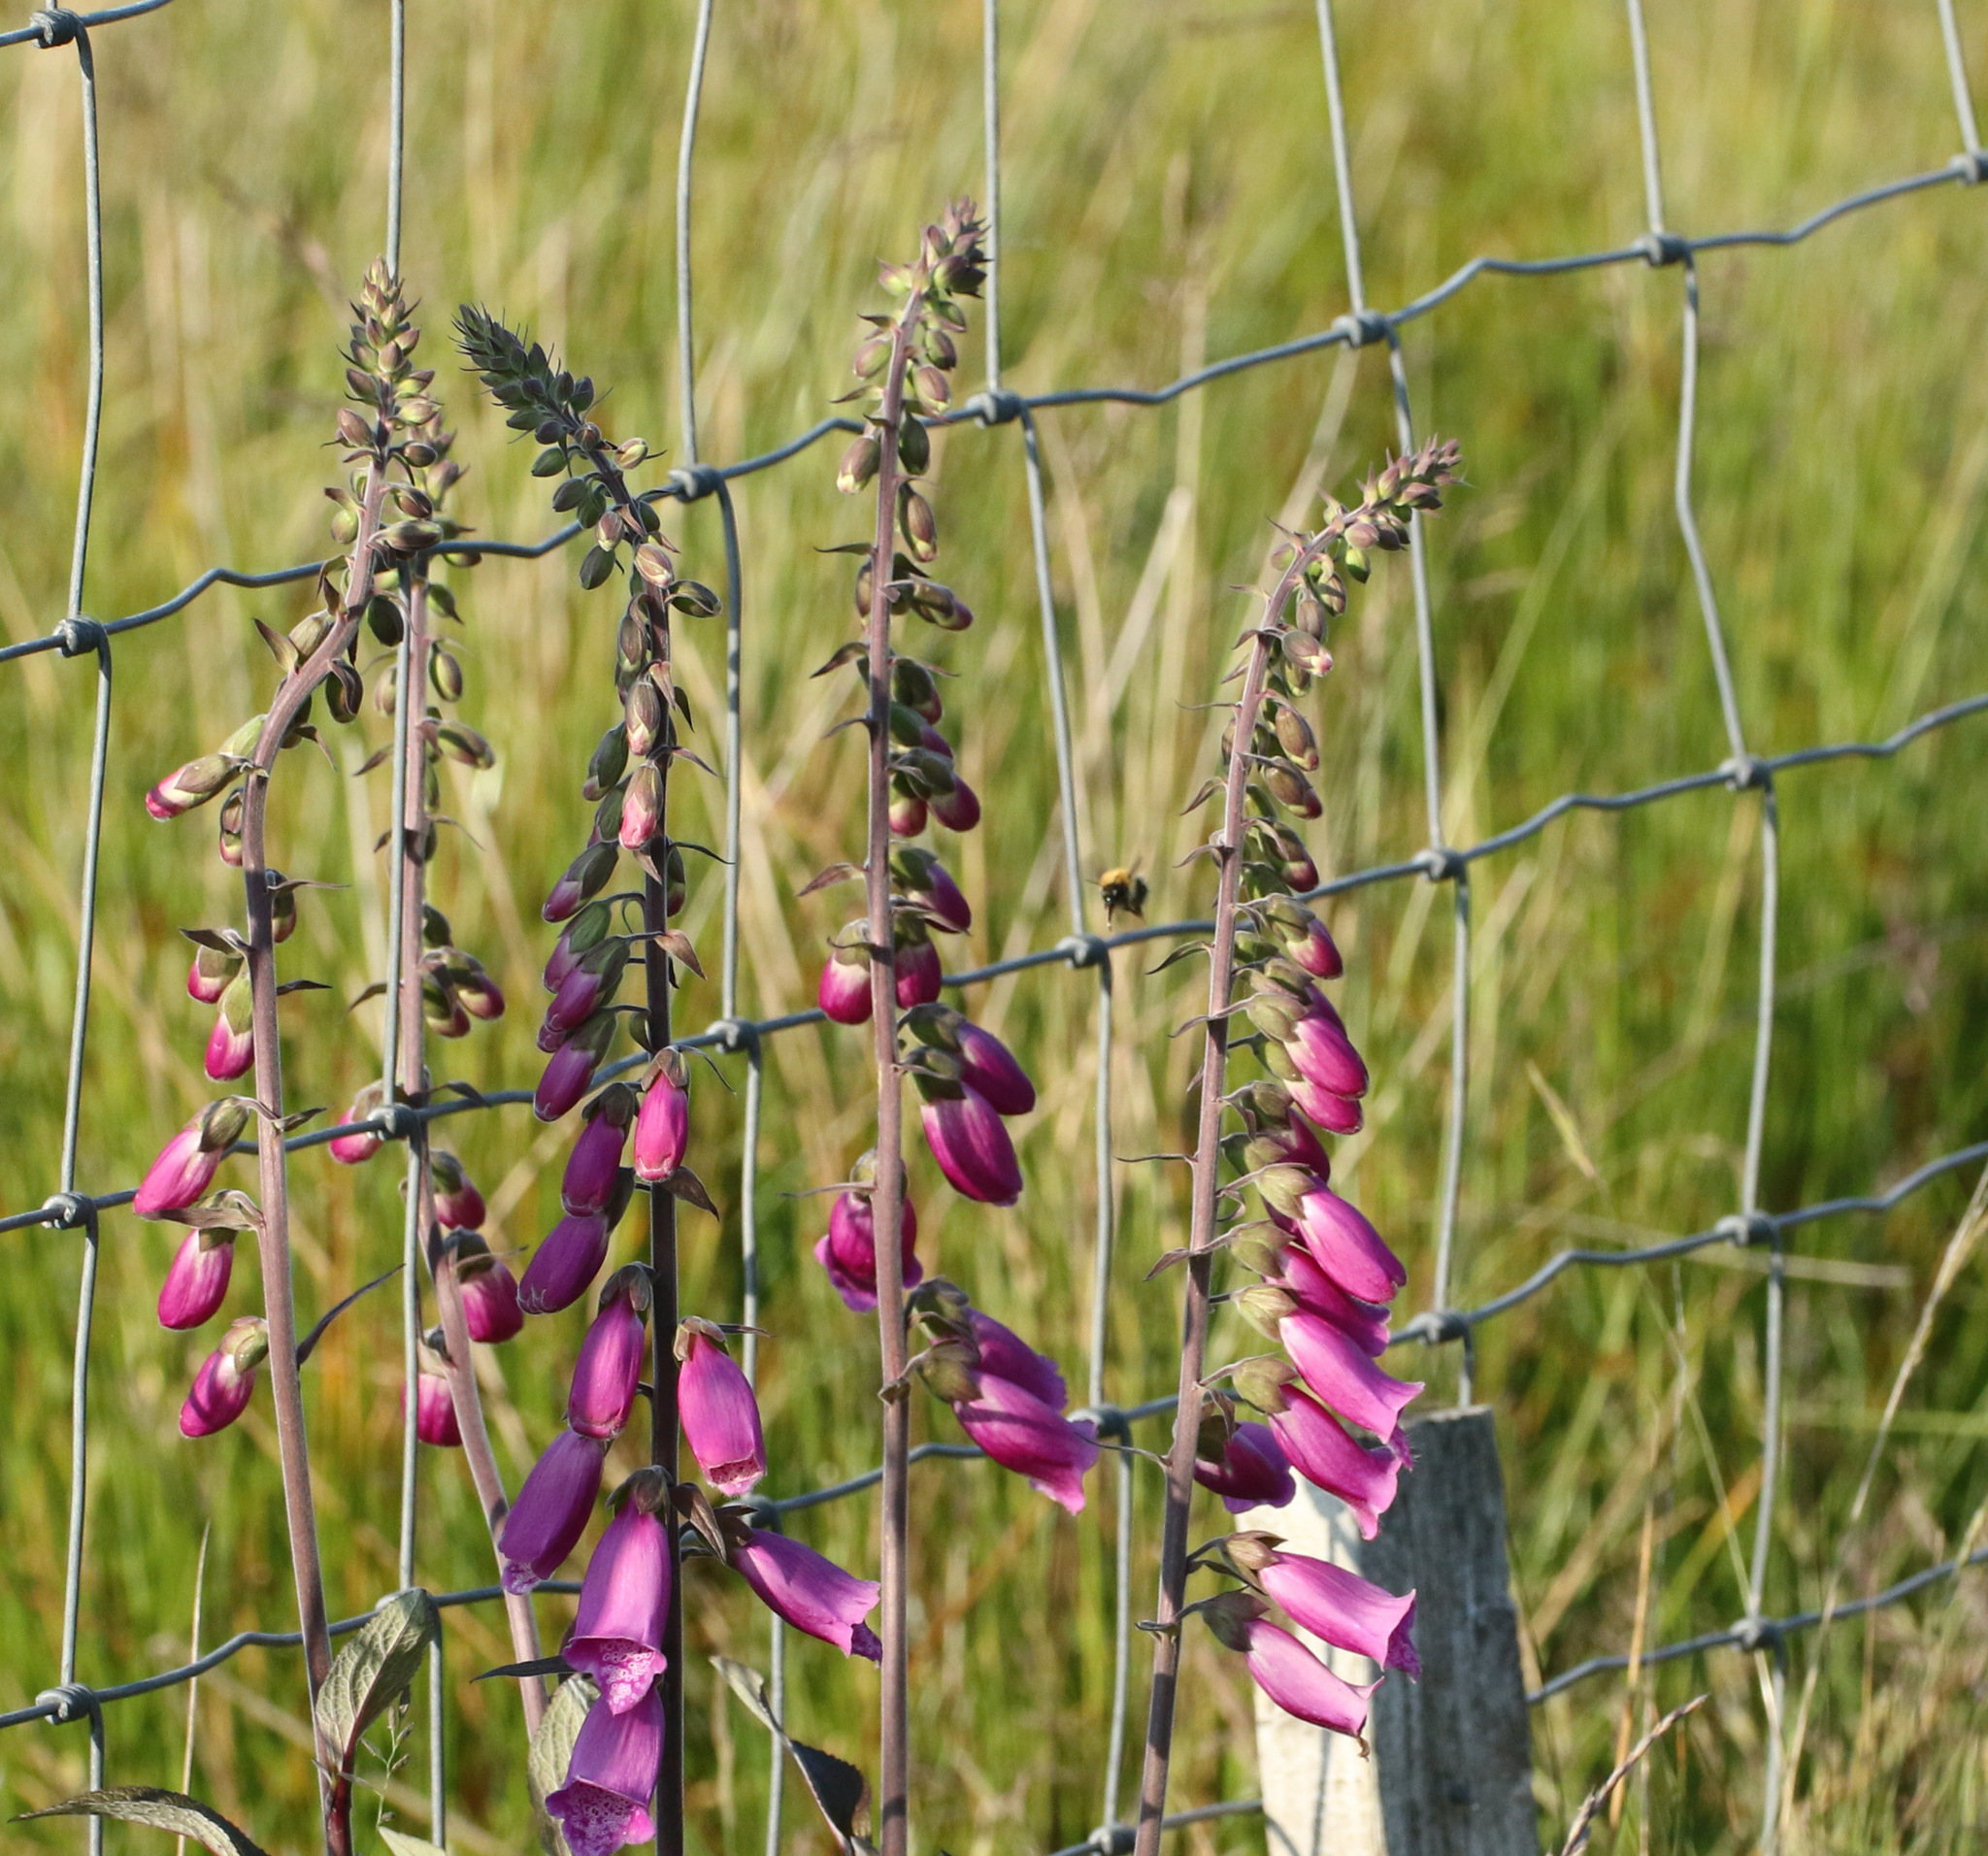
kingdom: Plantae
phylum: Tracheophyta
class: Magnoliopsida
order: Lamiales
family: Plantaginaceae
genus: Digitalis
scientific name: Digitalis purpurea
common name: Foxglove
